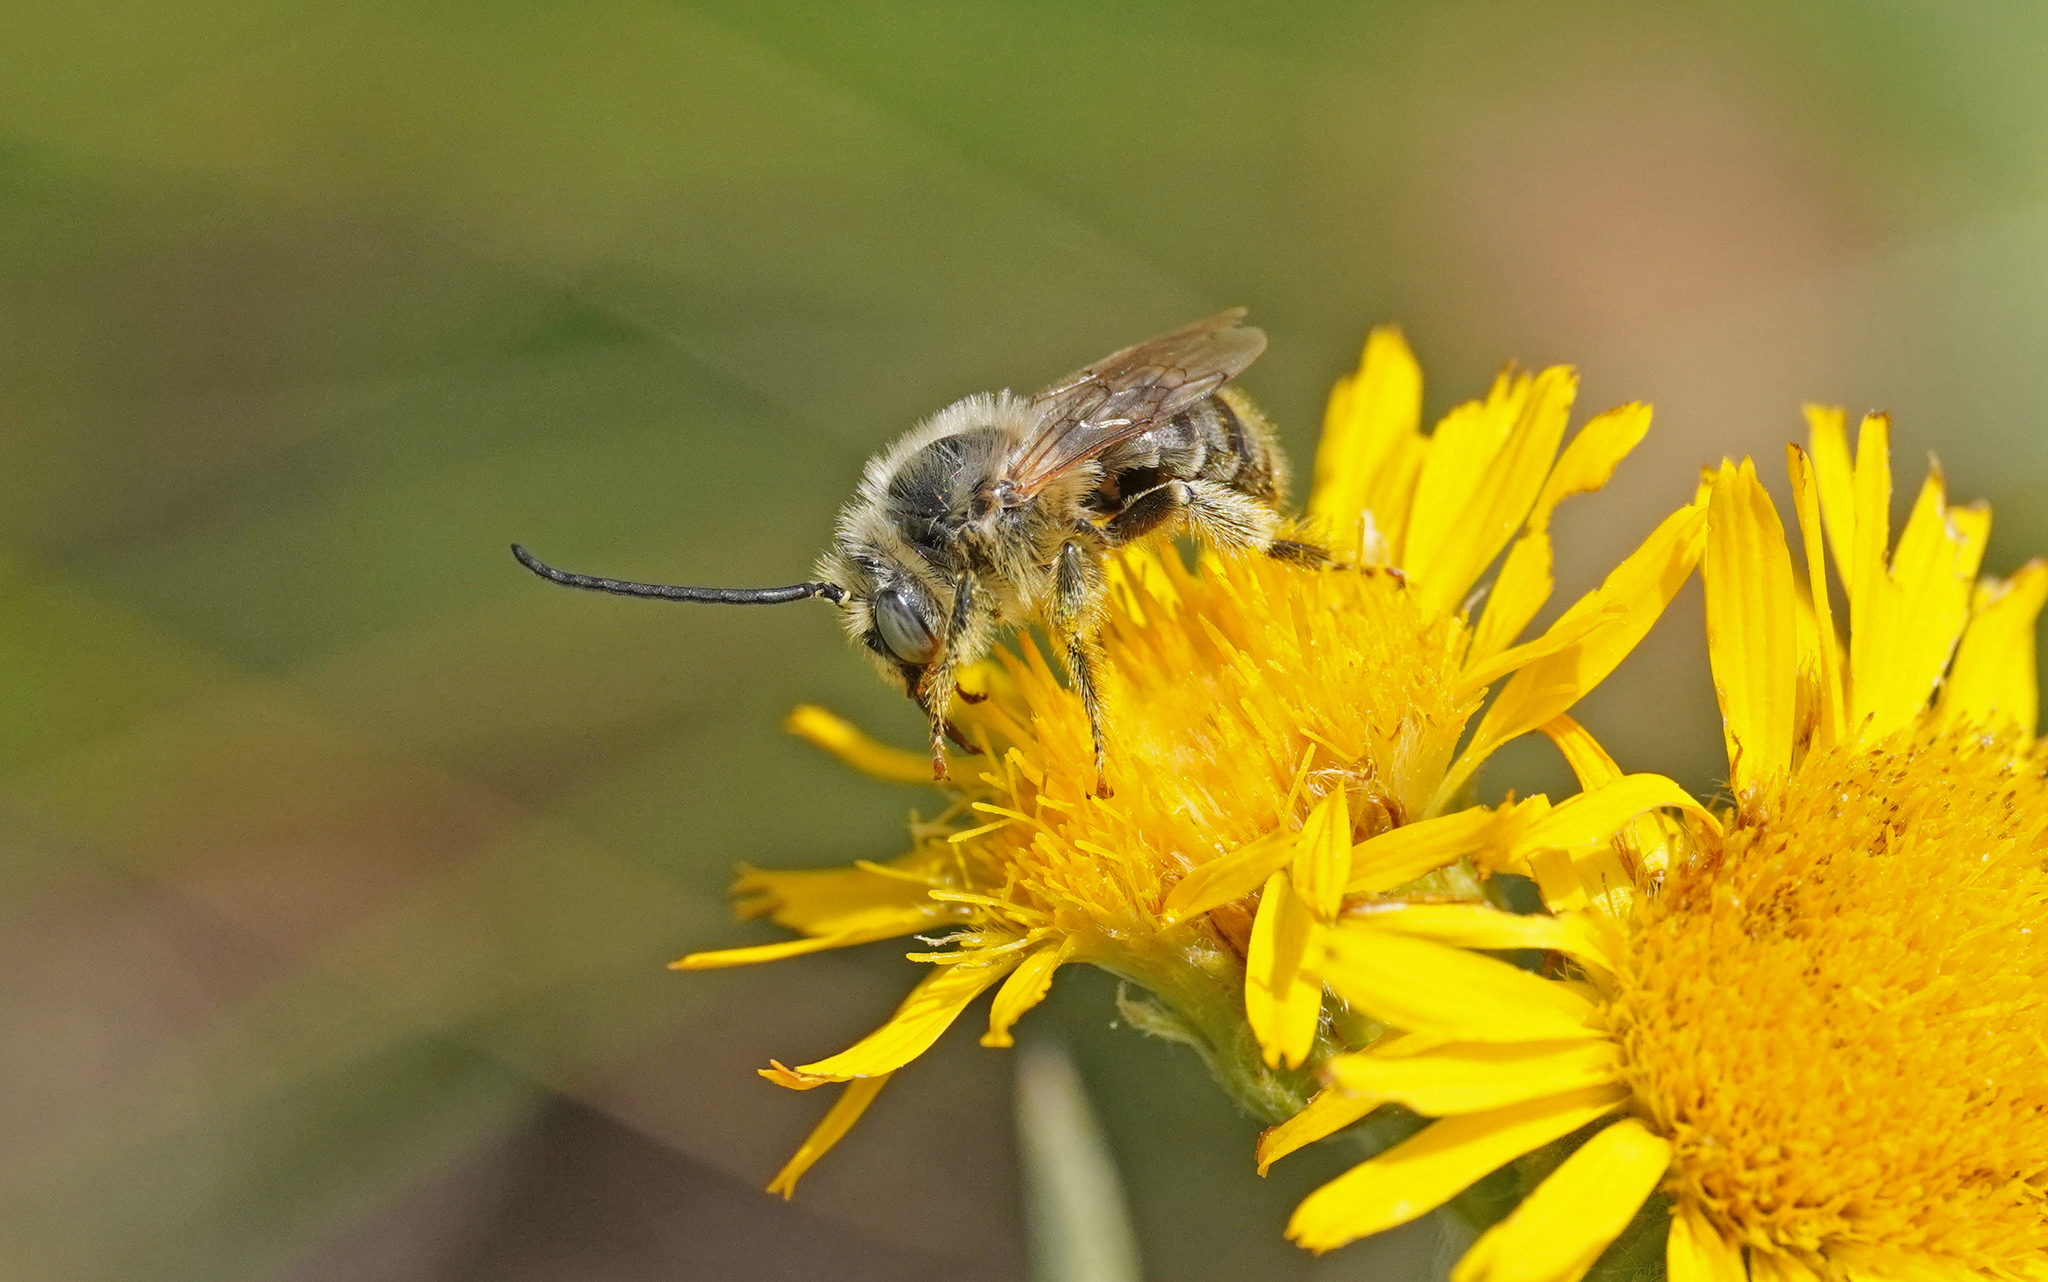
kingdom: Animalia
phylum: Arthropoda
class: Insecta
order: Hymenoptera
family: Apidae
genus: Tetraloniella
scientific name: Tetraloniella fulvescens
